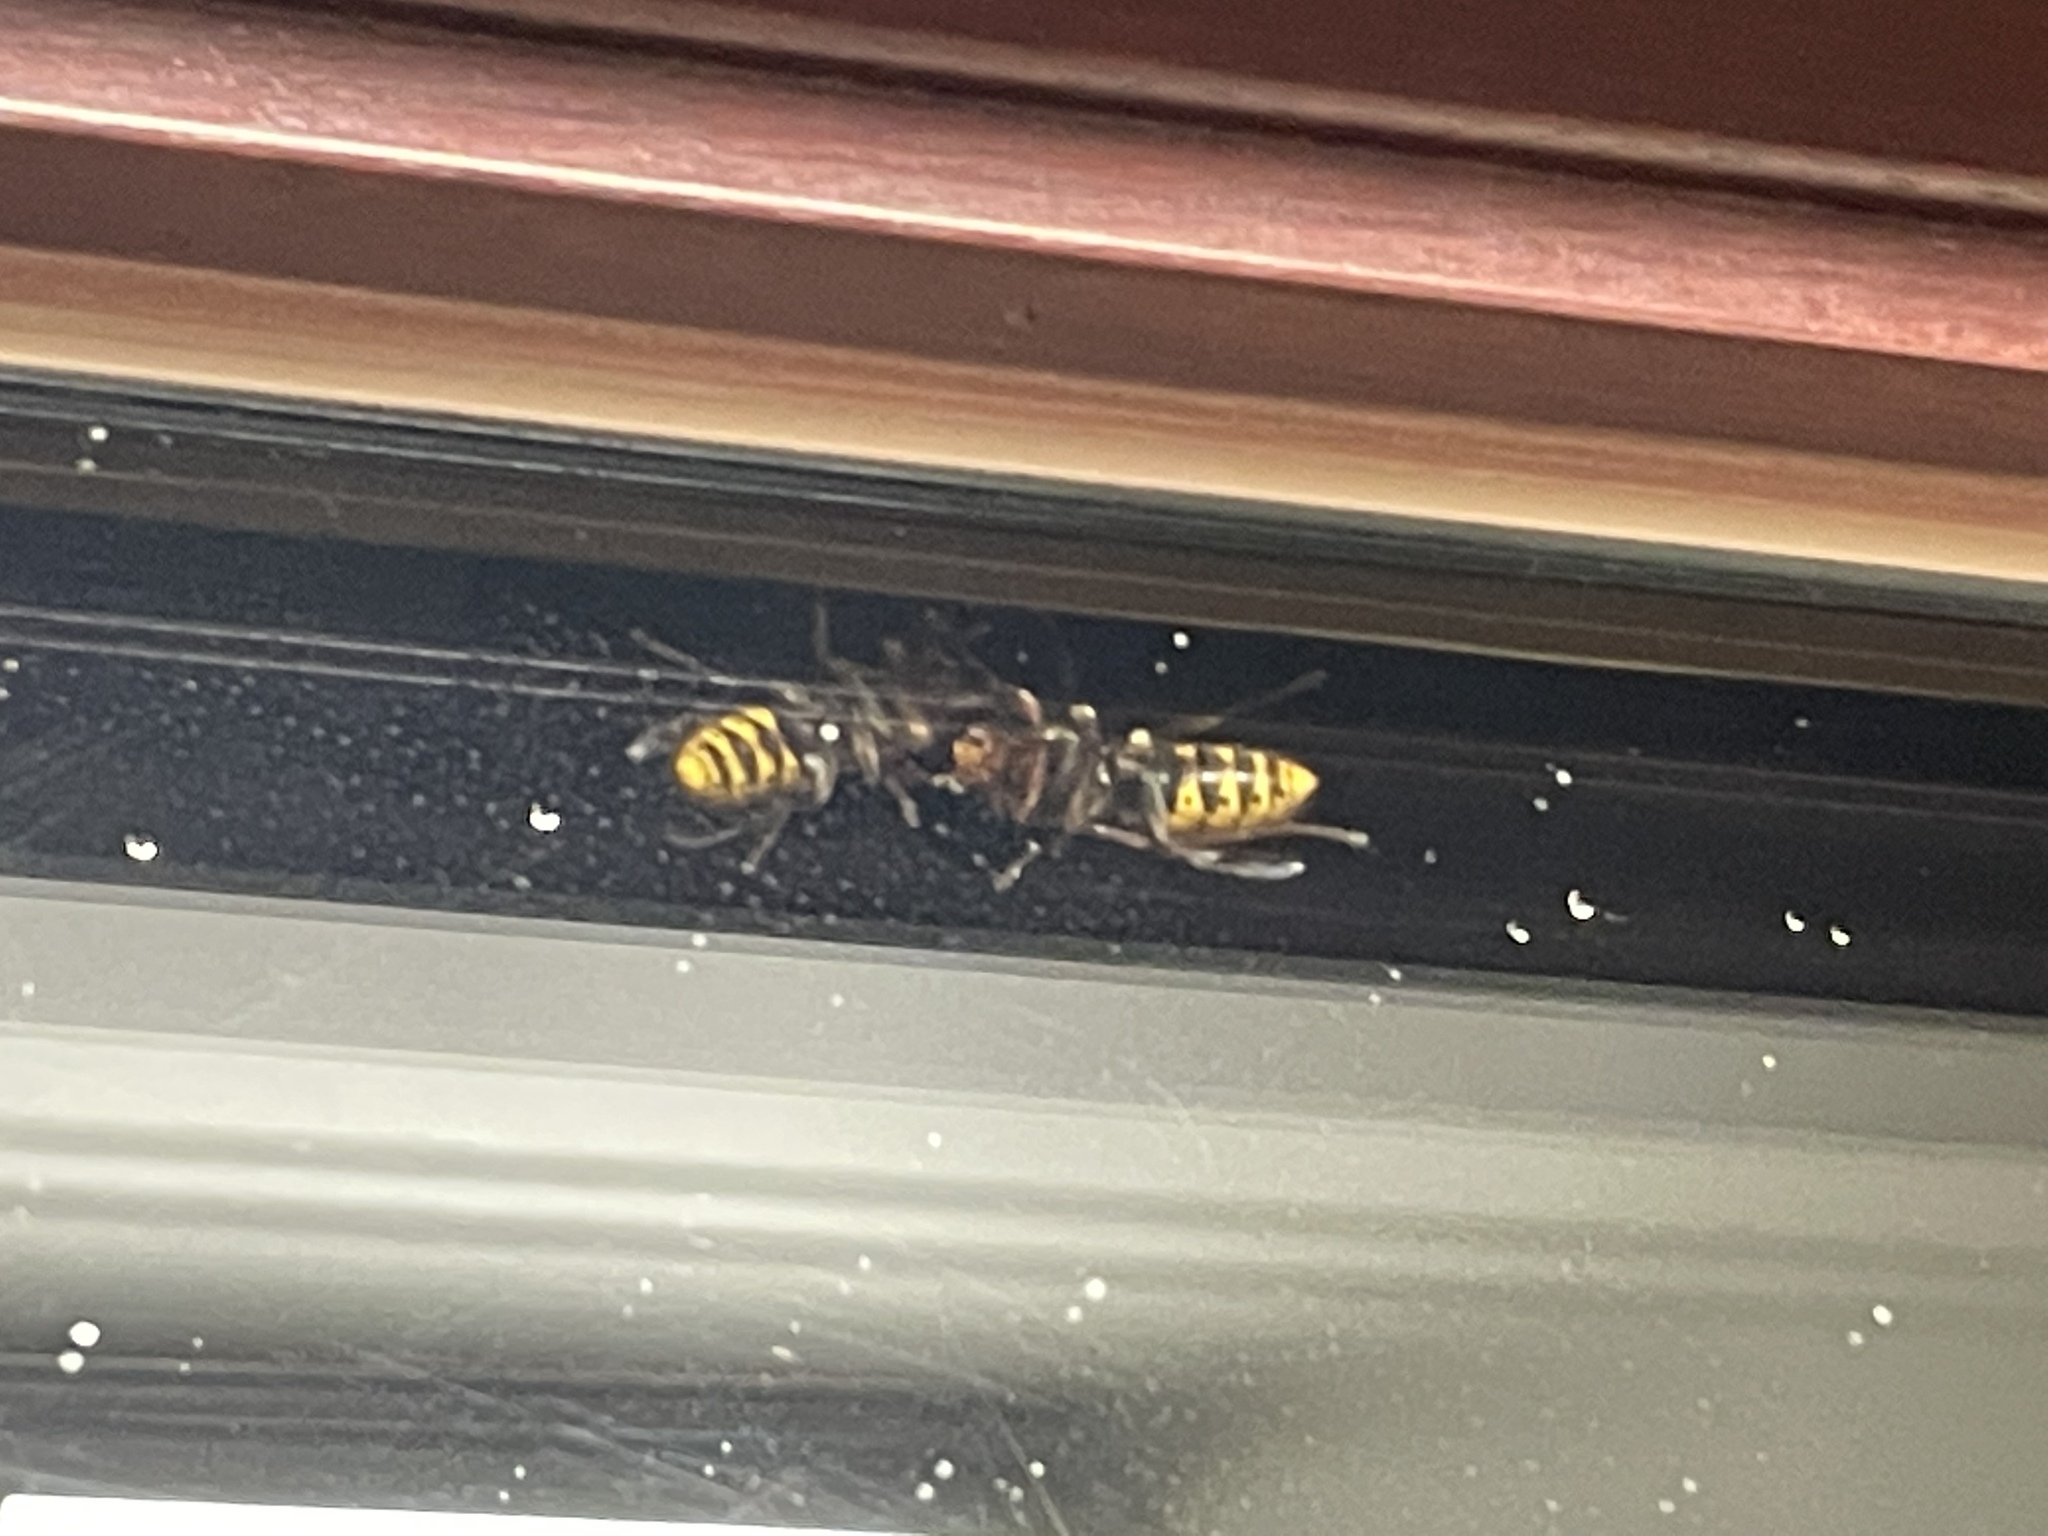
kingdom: Animalia
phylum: Arthropoda
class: Insecta
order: Hymenoptera
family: Vespidae
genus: Vespa
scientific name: Vespa crabro
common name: Hornet
